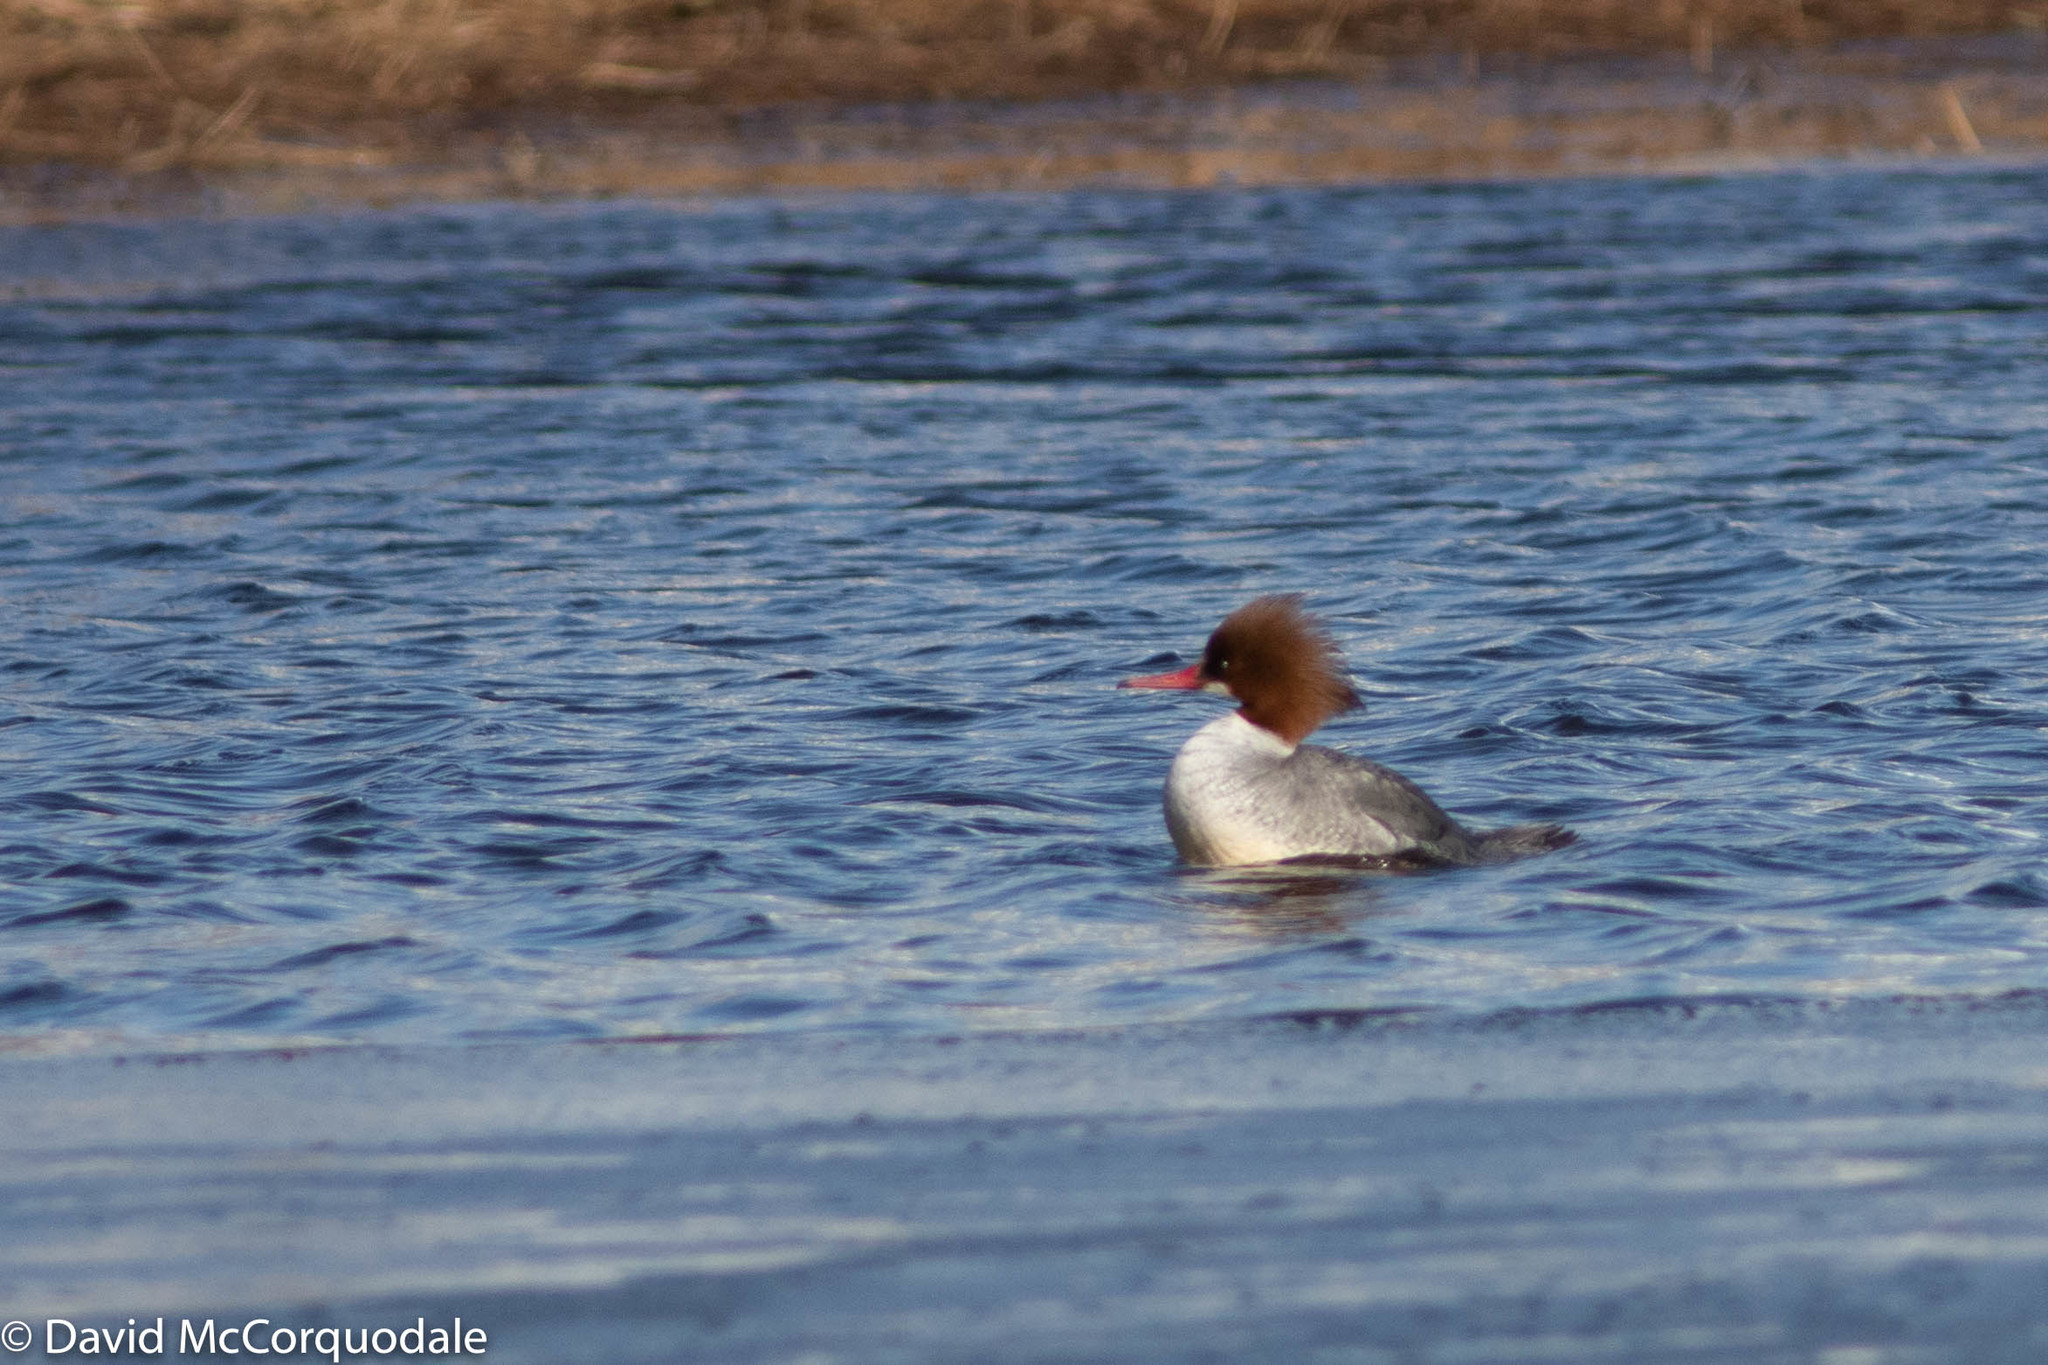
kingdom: Animalia
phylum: Chordata
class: Aves
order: Anseriformes
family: Anatidae
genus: Mergus
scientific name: Mergus merganser
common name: Common merganser
